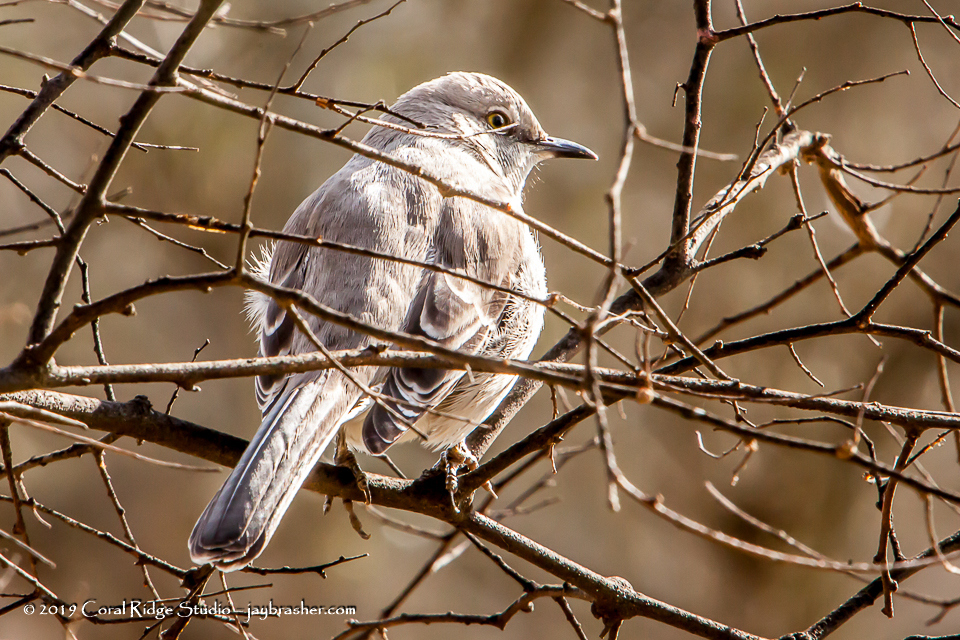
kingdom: Animalia
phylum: Chordata
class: Aves
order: Passeriformes
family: Mimidae
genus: Mimus
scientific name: Mimus polyglottos
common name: Northern mockingbird
